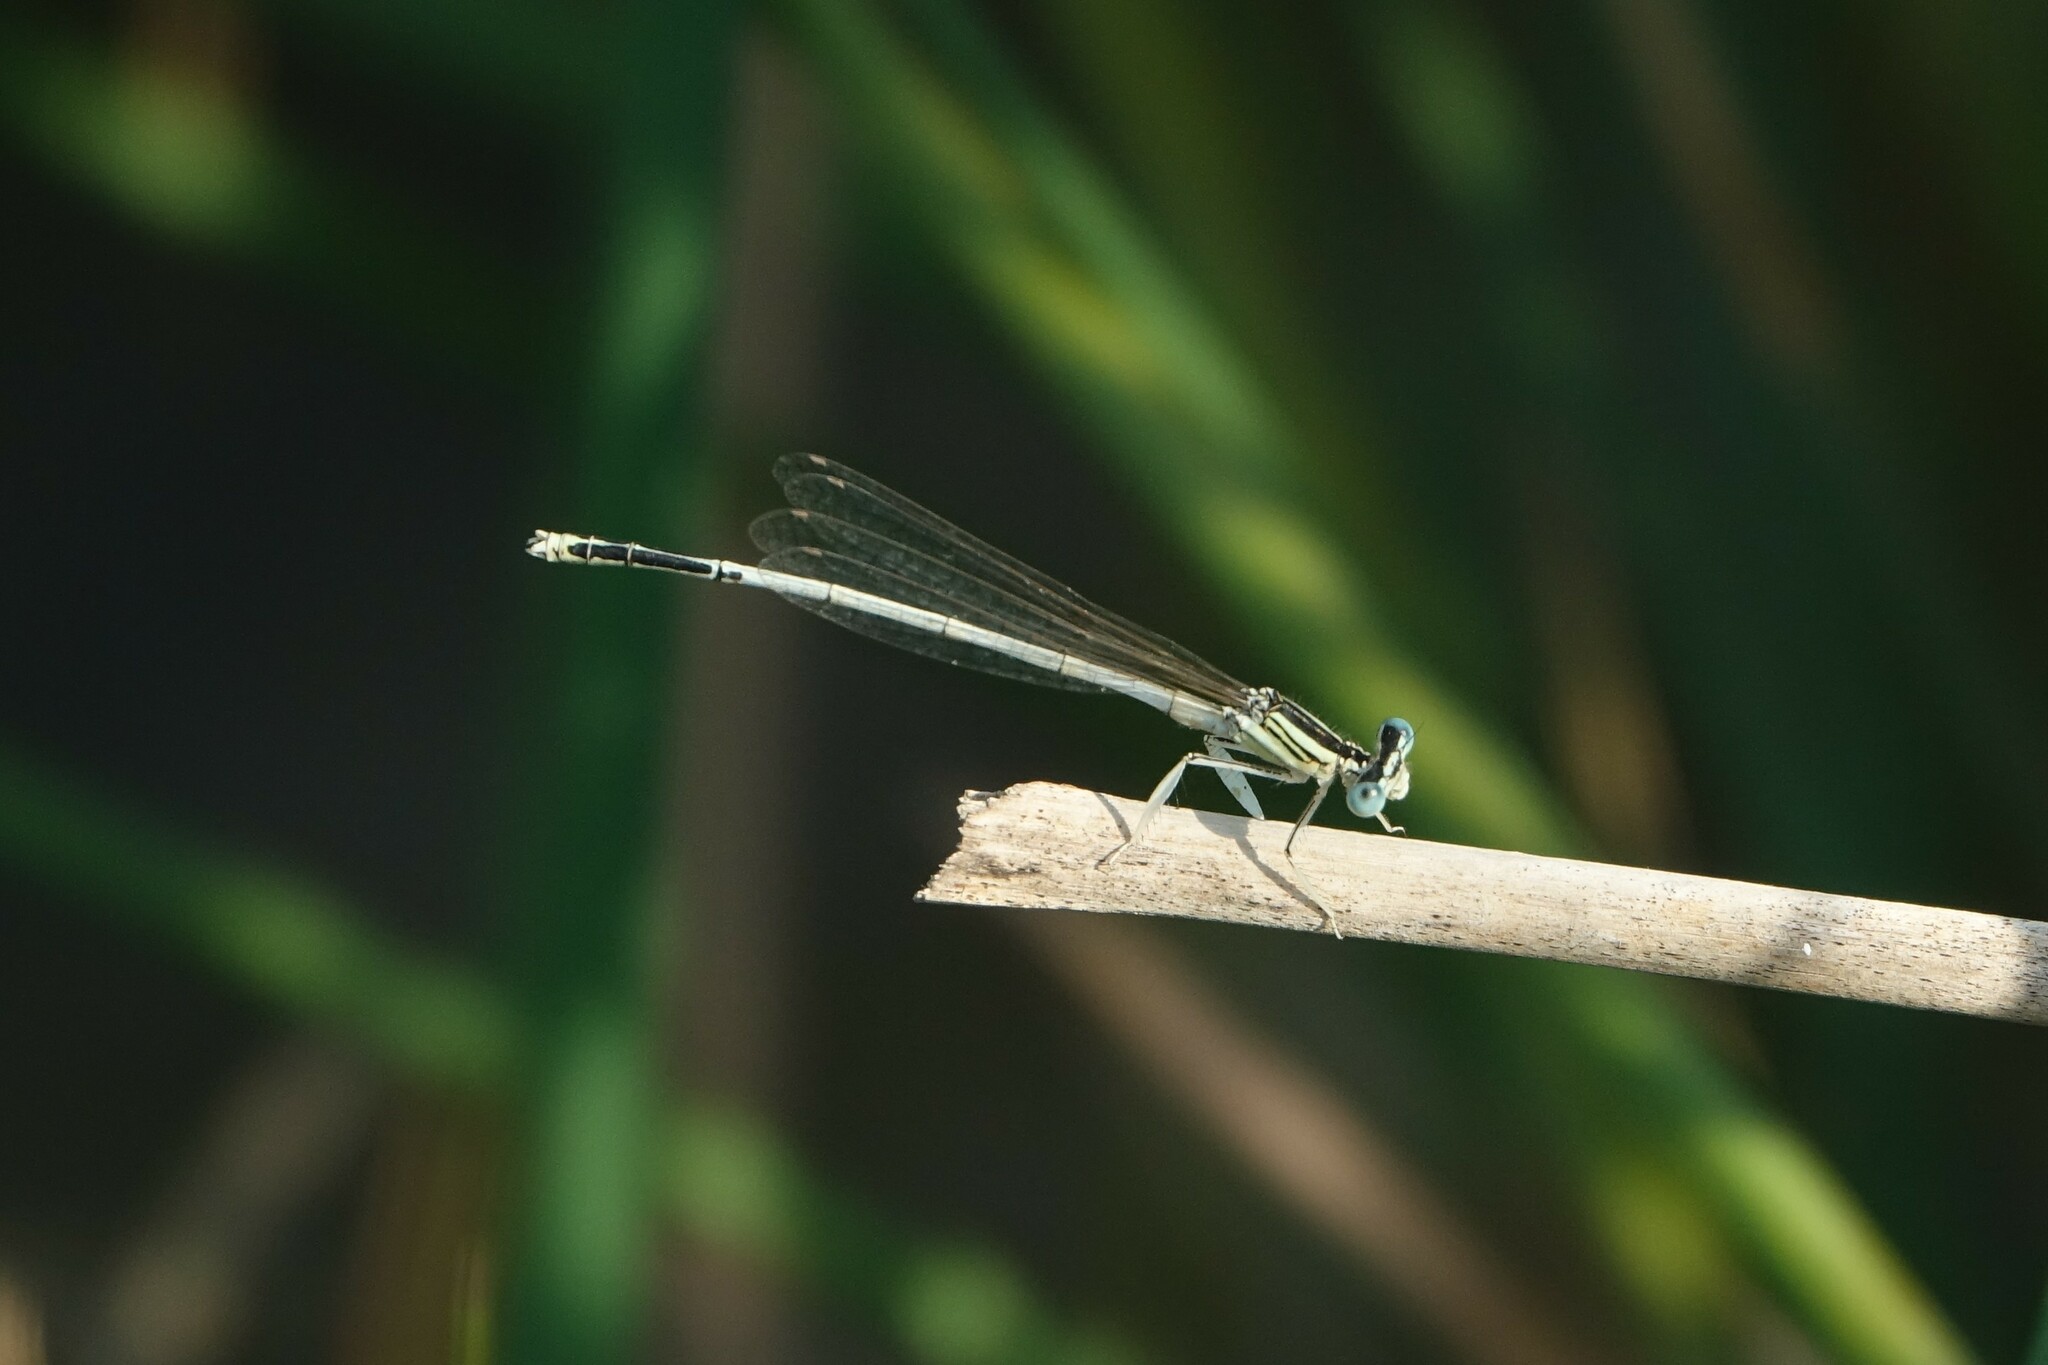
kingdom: Animalia
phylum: Arthropoda
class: Insecta
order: Odonata
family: Platycnemididae
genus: Platycnemis
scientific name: Platycnemis latipes
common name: White featherleg
